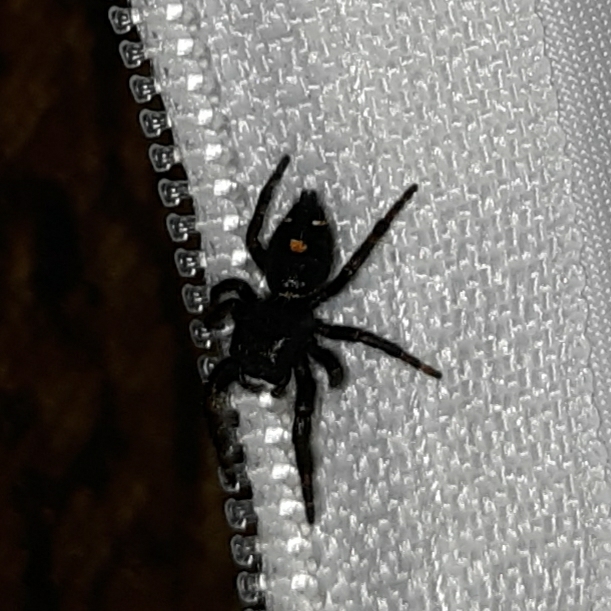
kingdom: Animalia
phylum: Arthropoda
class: Arachnida
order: Araneae
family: Salticidae
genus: Phidippus
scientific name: Phidippus audax
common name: Bold jumper
